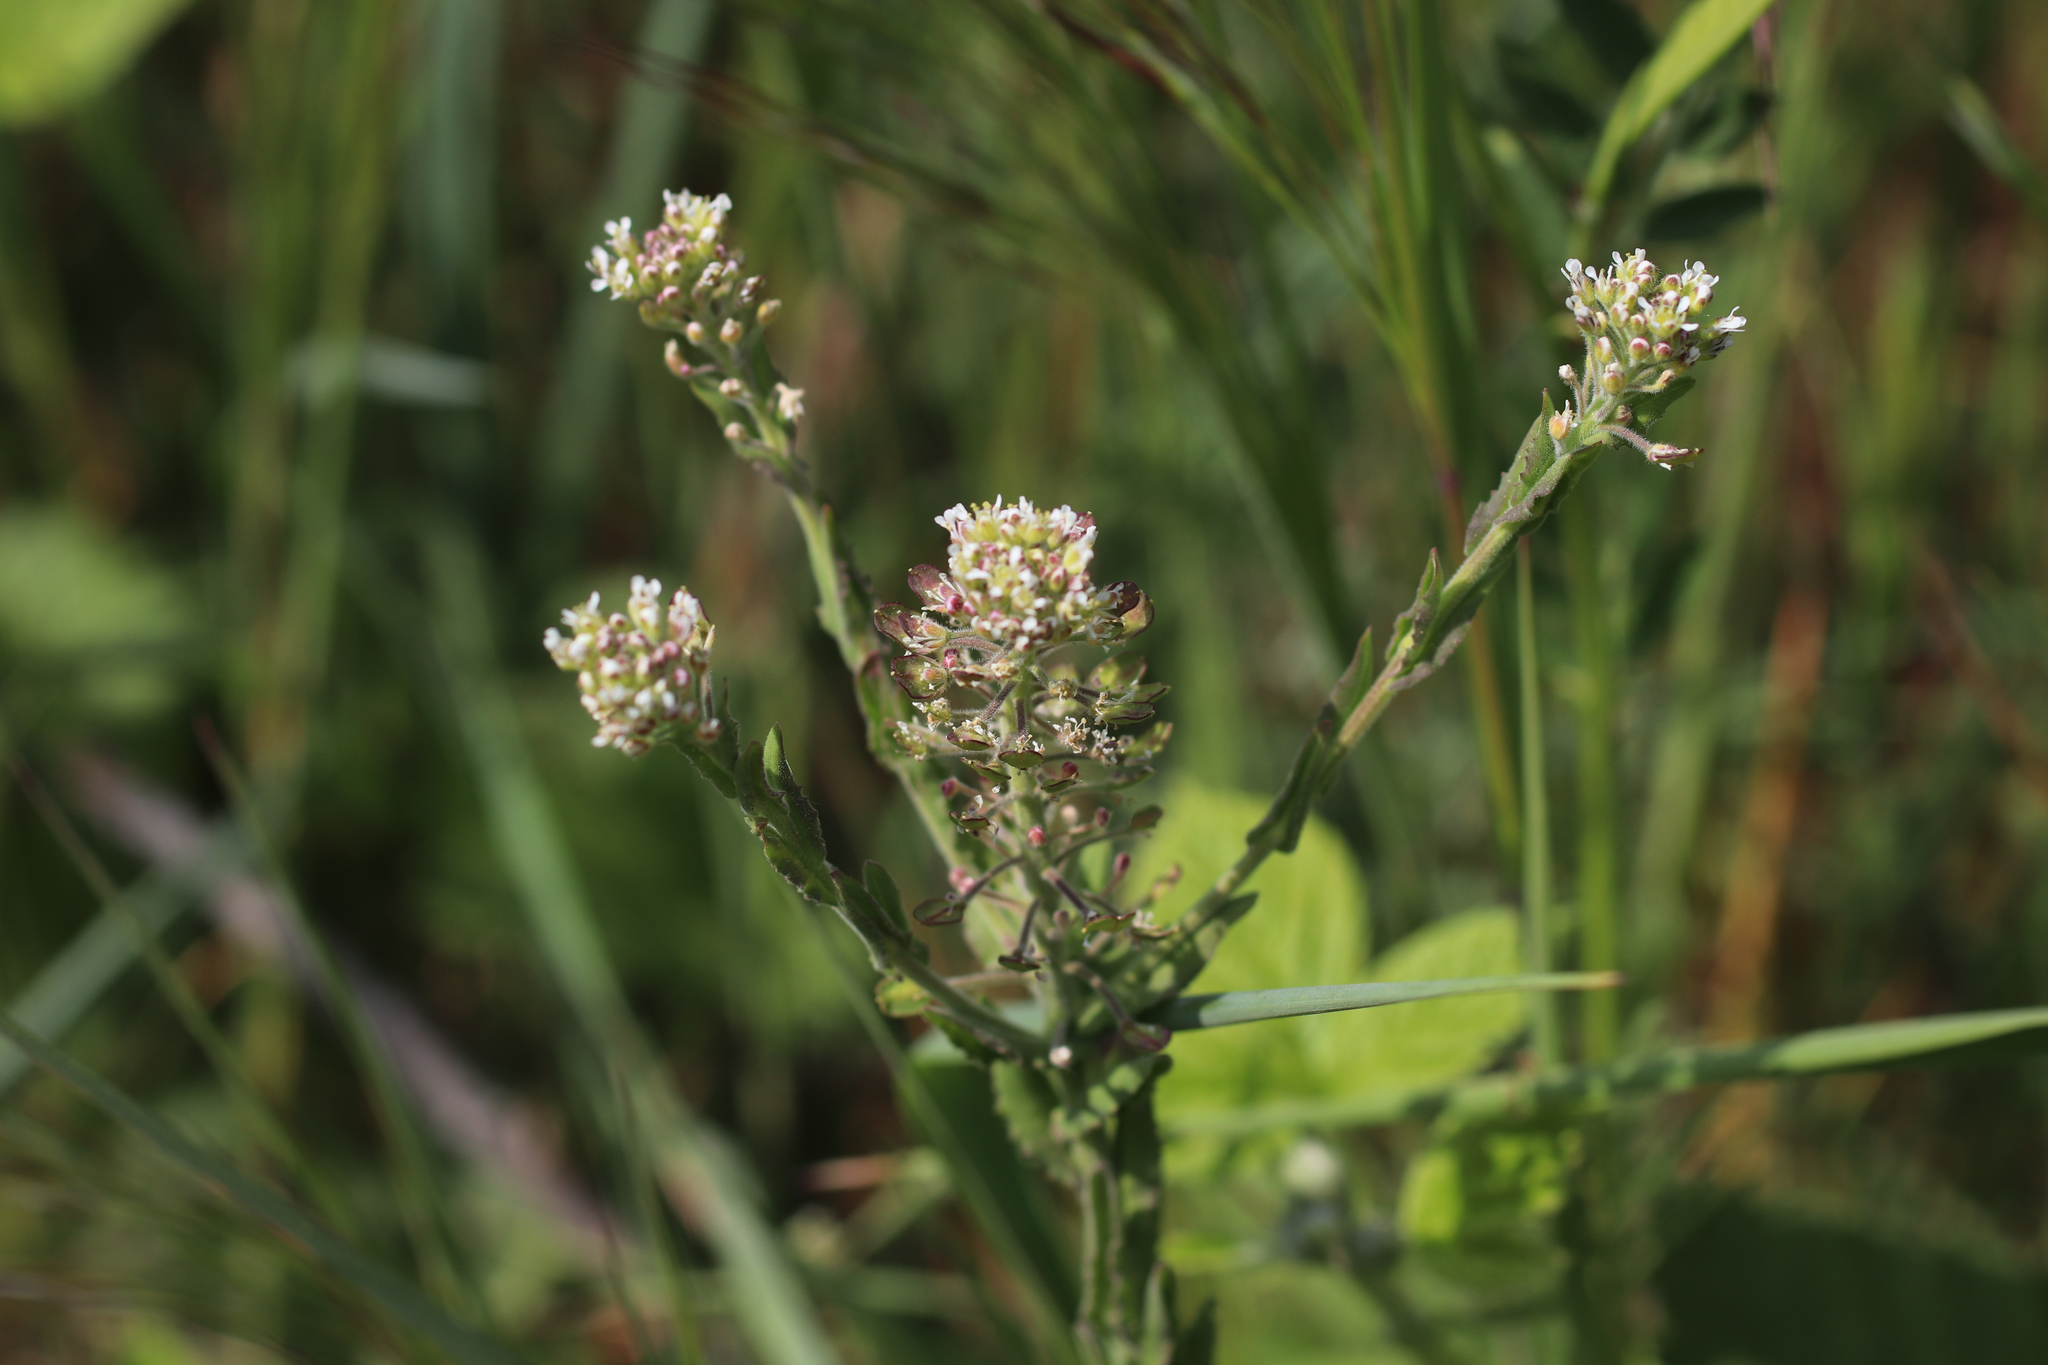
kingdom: Plantae
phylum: Tracheophyta
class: Magnoliopsida
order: Brassicales
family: Brassicaceae
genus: Lepidium
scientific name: Lepidium campestre
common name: Field pepperwort
